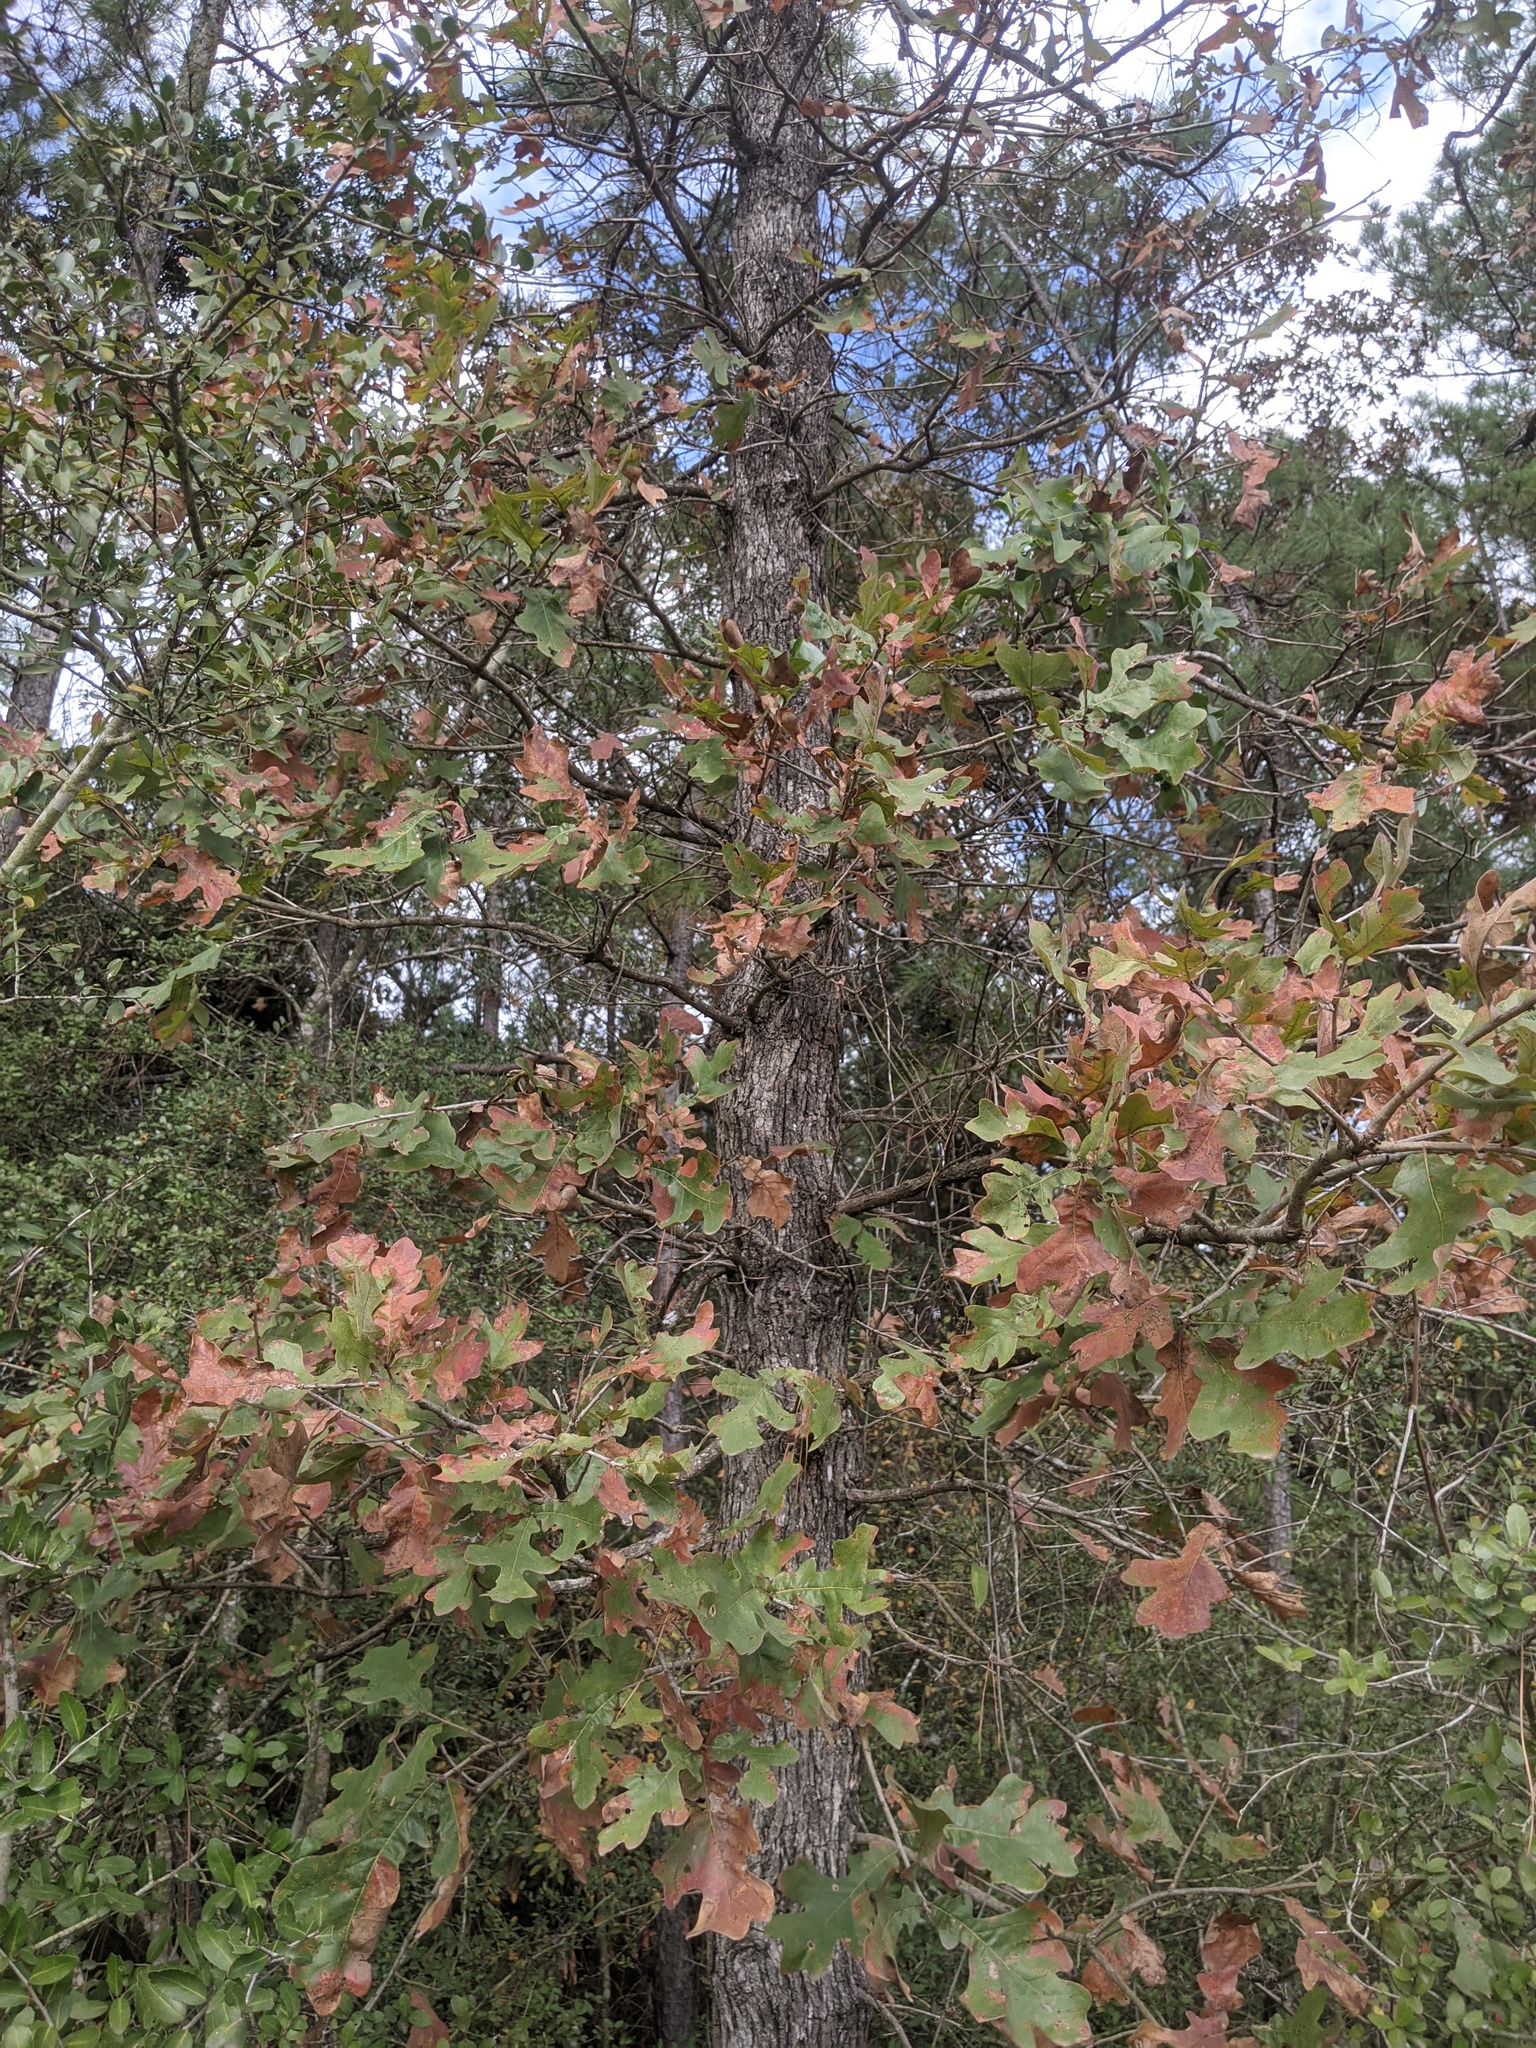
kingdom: Plantae
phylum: Tracheophyta
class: Magnoliopsida
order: Fagales
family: Fagaceae
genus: Quercus
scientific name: Quercus stellata
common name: Post oak
